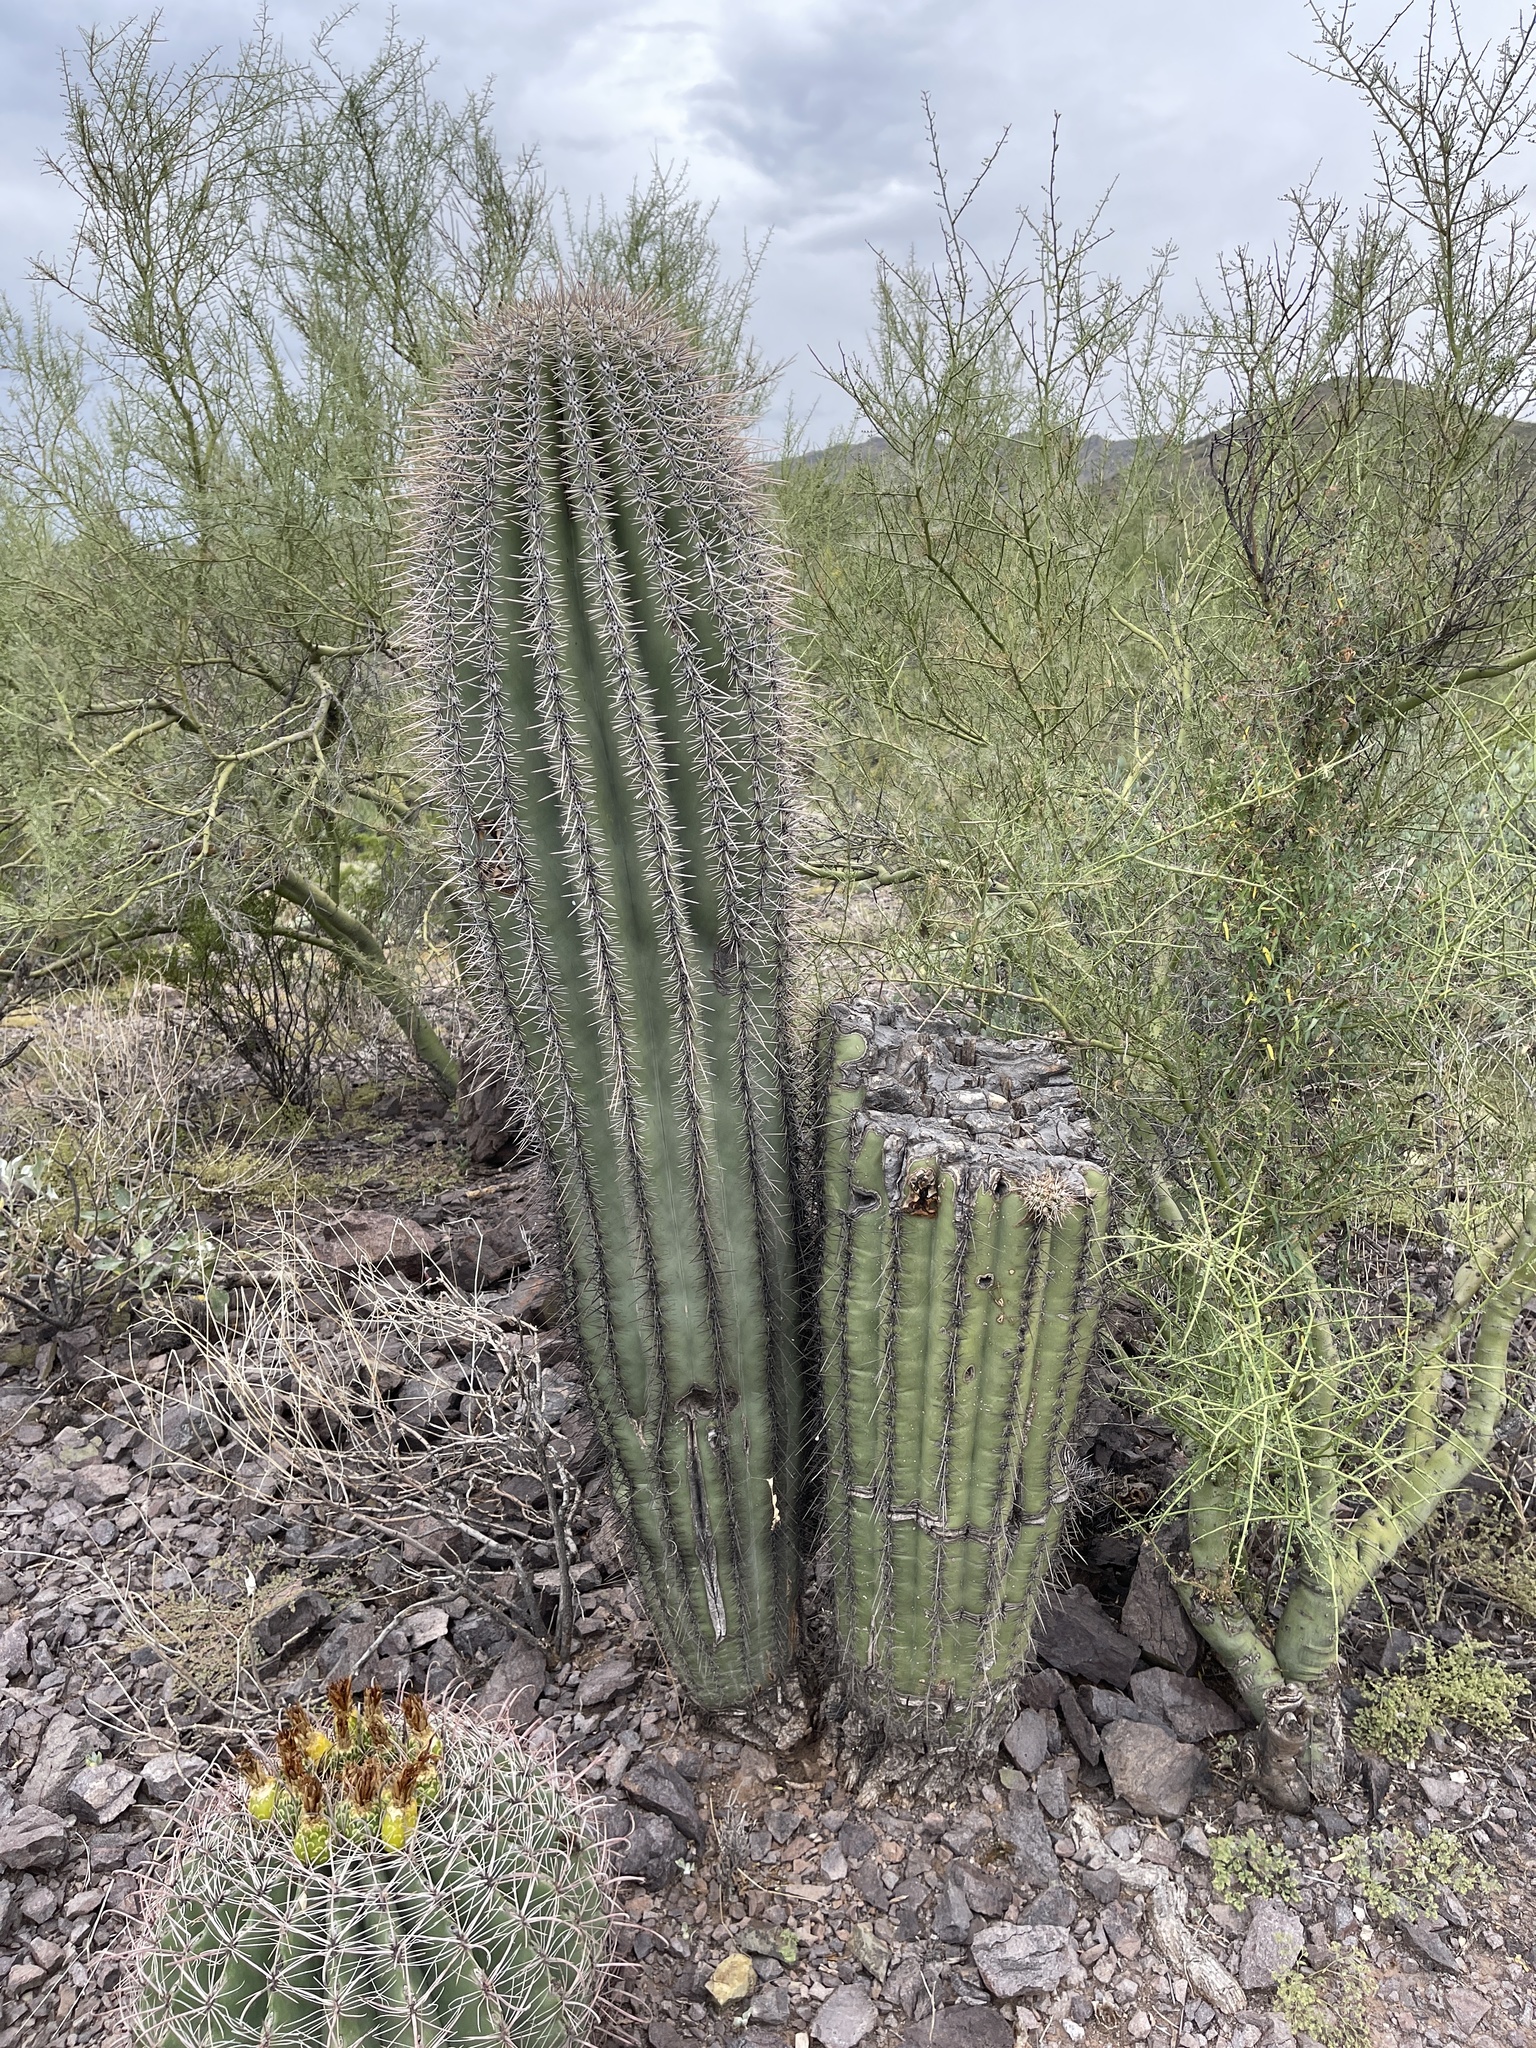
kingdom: Plantae
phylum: Tracheophyta
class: Magnoliopsida
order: Caryophyllales
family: Cactaceae
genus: Carnegiea
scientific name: Carnegiea gigantea
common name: Saguaro
